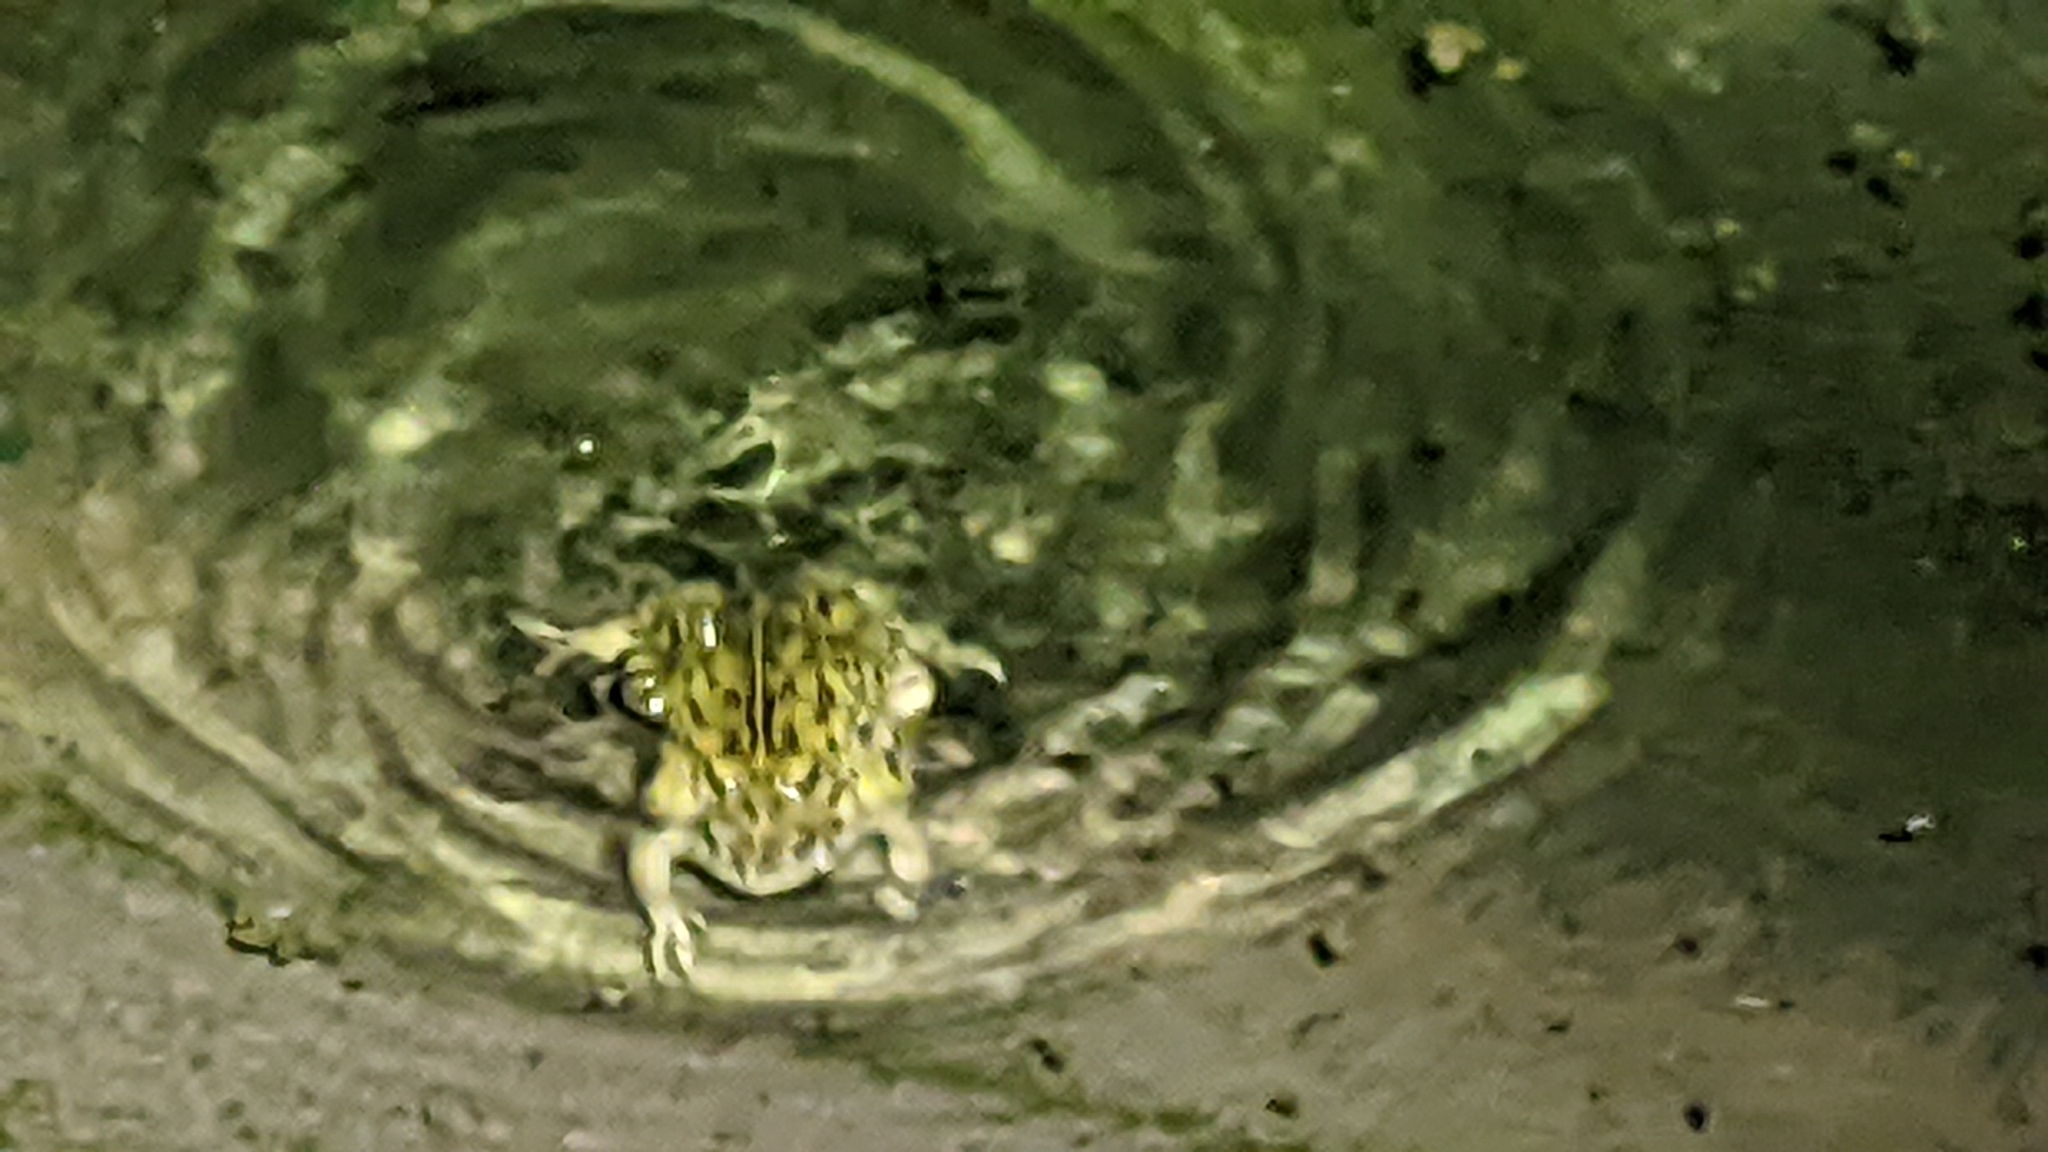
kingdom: Animalia
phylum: Chordata
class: Amphibia
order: Anura
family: Bufonidae
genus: Anaxyrus
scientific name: Anaxyrus boreas
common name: Western toad
